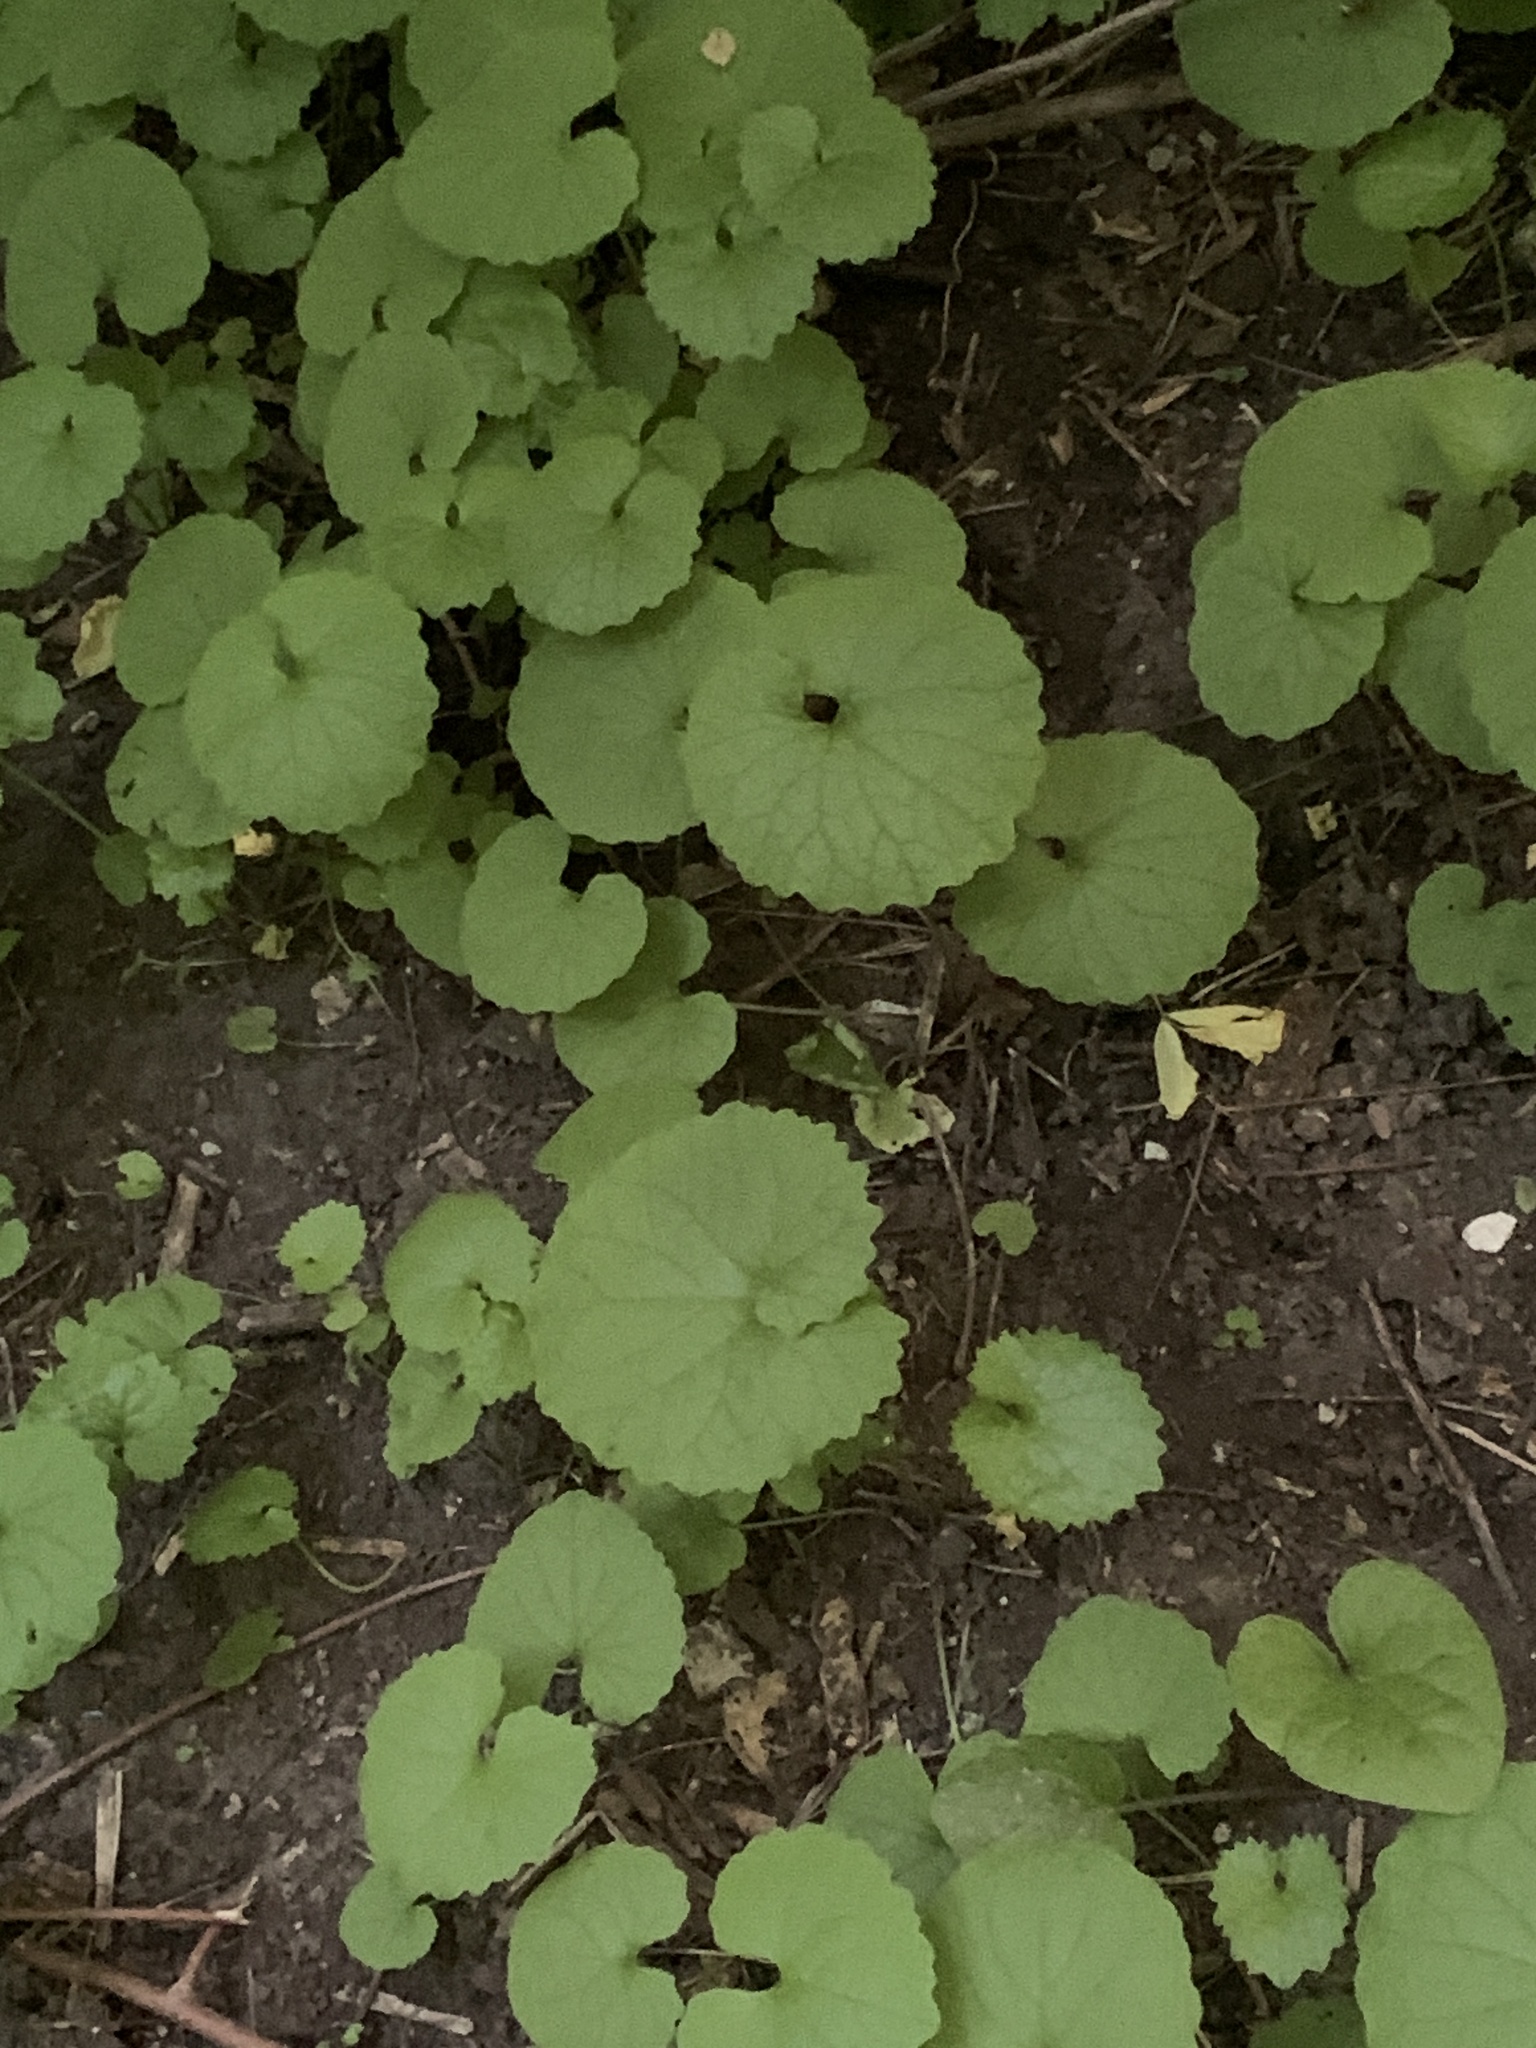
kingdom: Plantae
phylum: Tracheophyta
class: Magnoliopsida
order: Brassicales
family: Brassicaceae
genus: Alliaria
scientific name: Alliaria petiolata
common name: Garlic mustard
